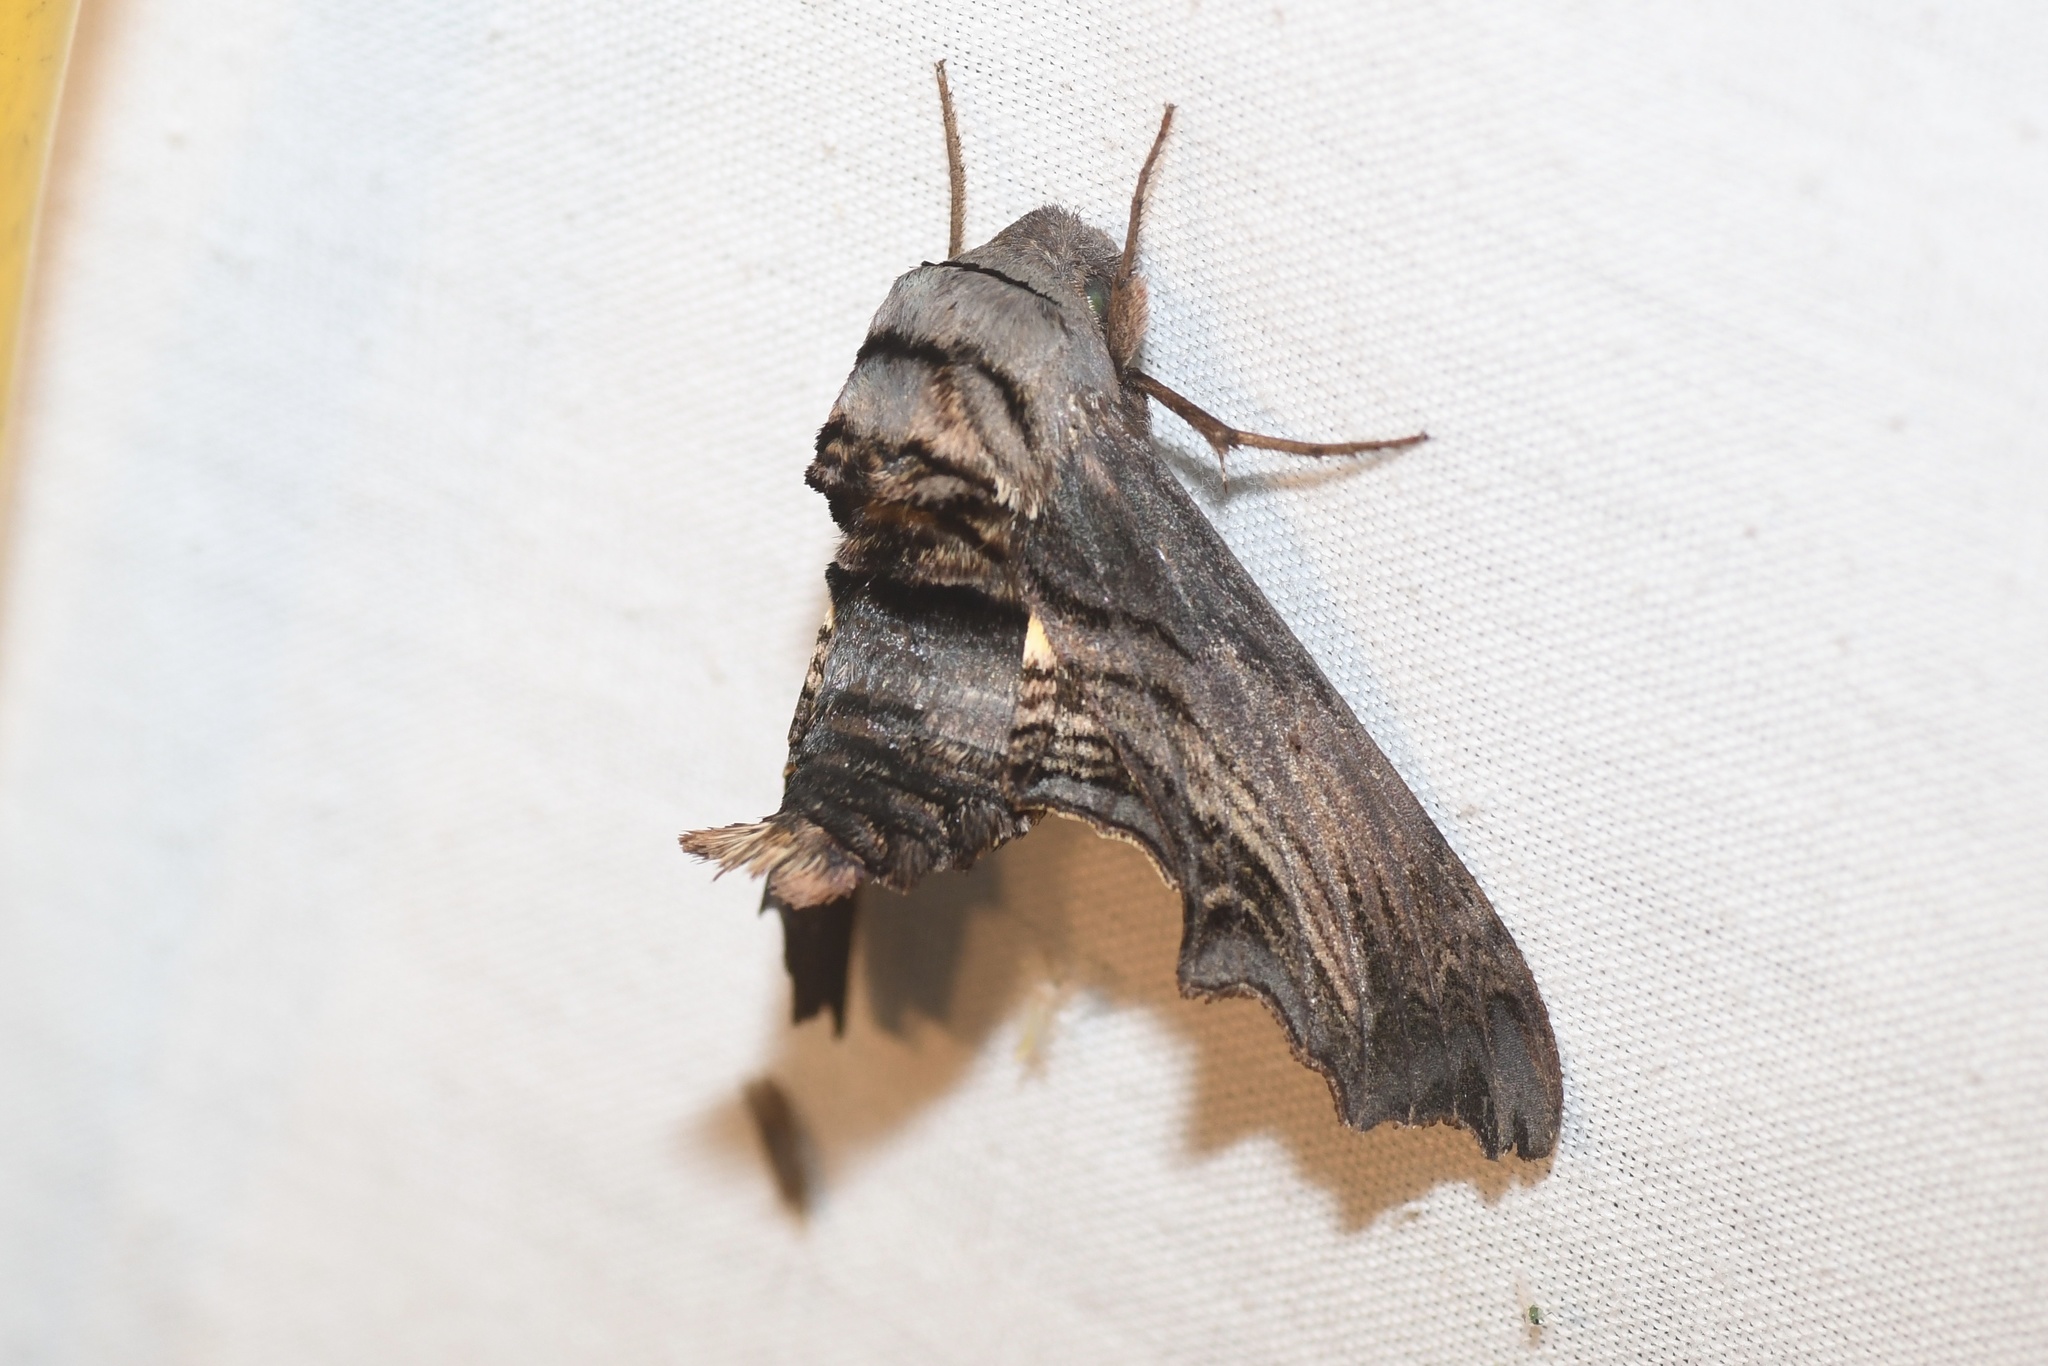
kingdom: Animalia
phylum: Arthropoda
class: Insecta
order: Lepidoptera
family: Sphingidae
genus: Sphecodina
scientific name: Sphecodina abbottii
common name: Abbott's sphinx
